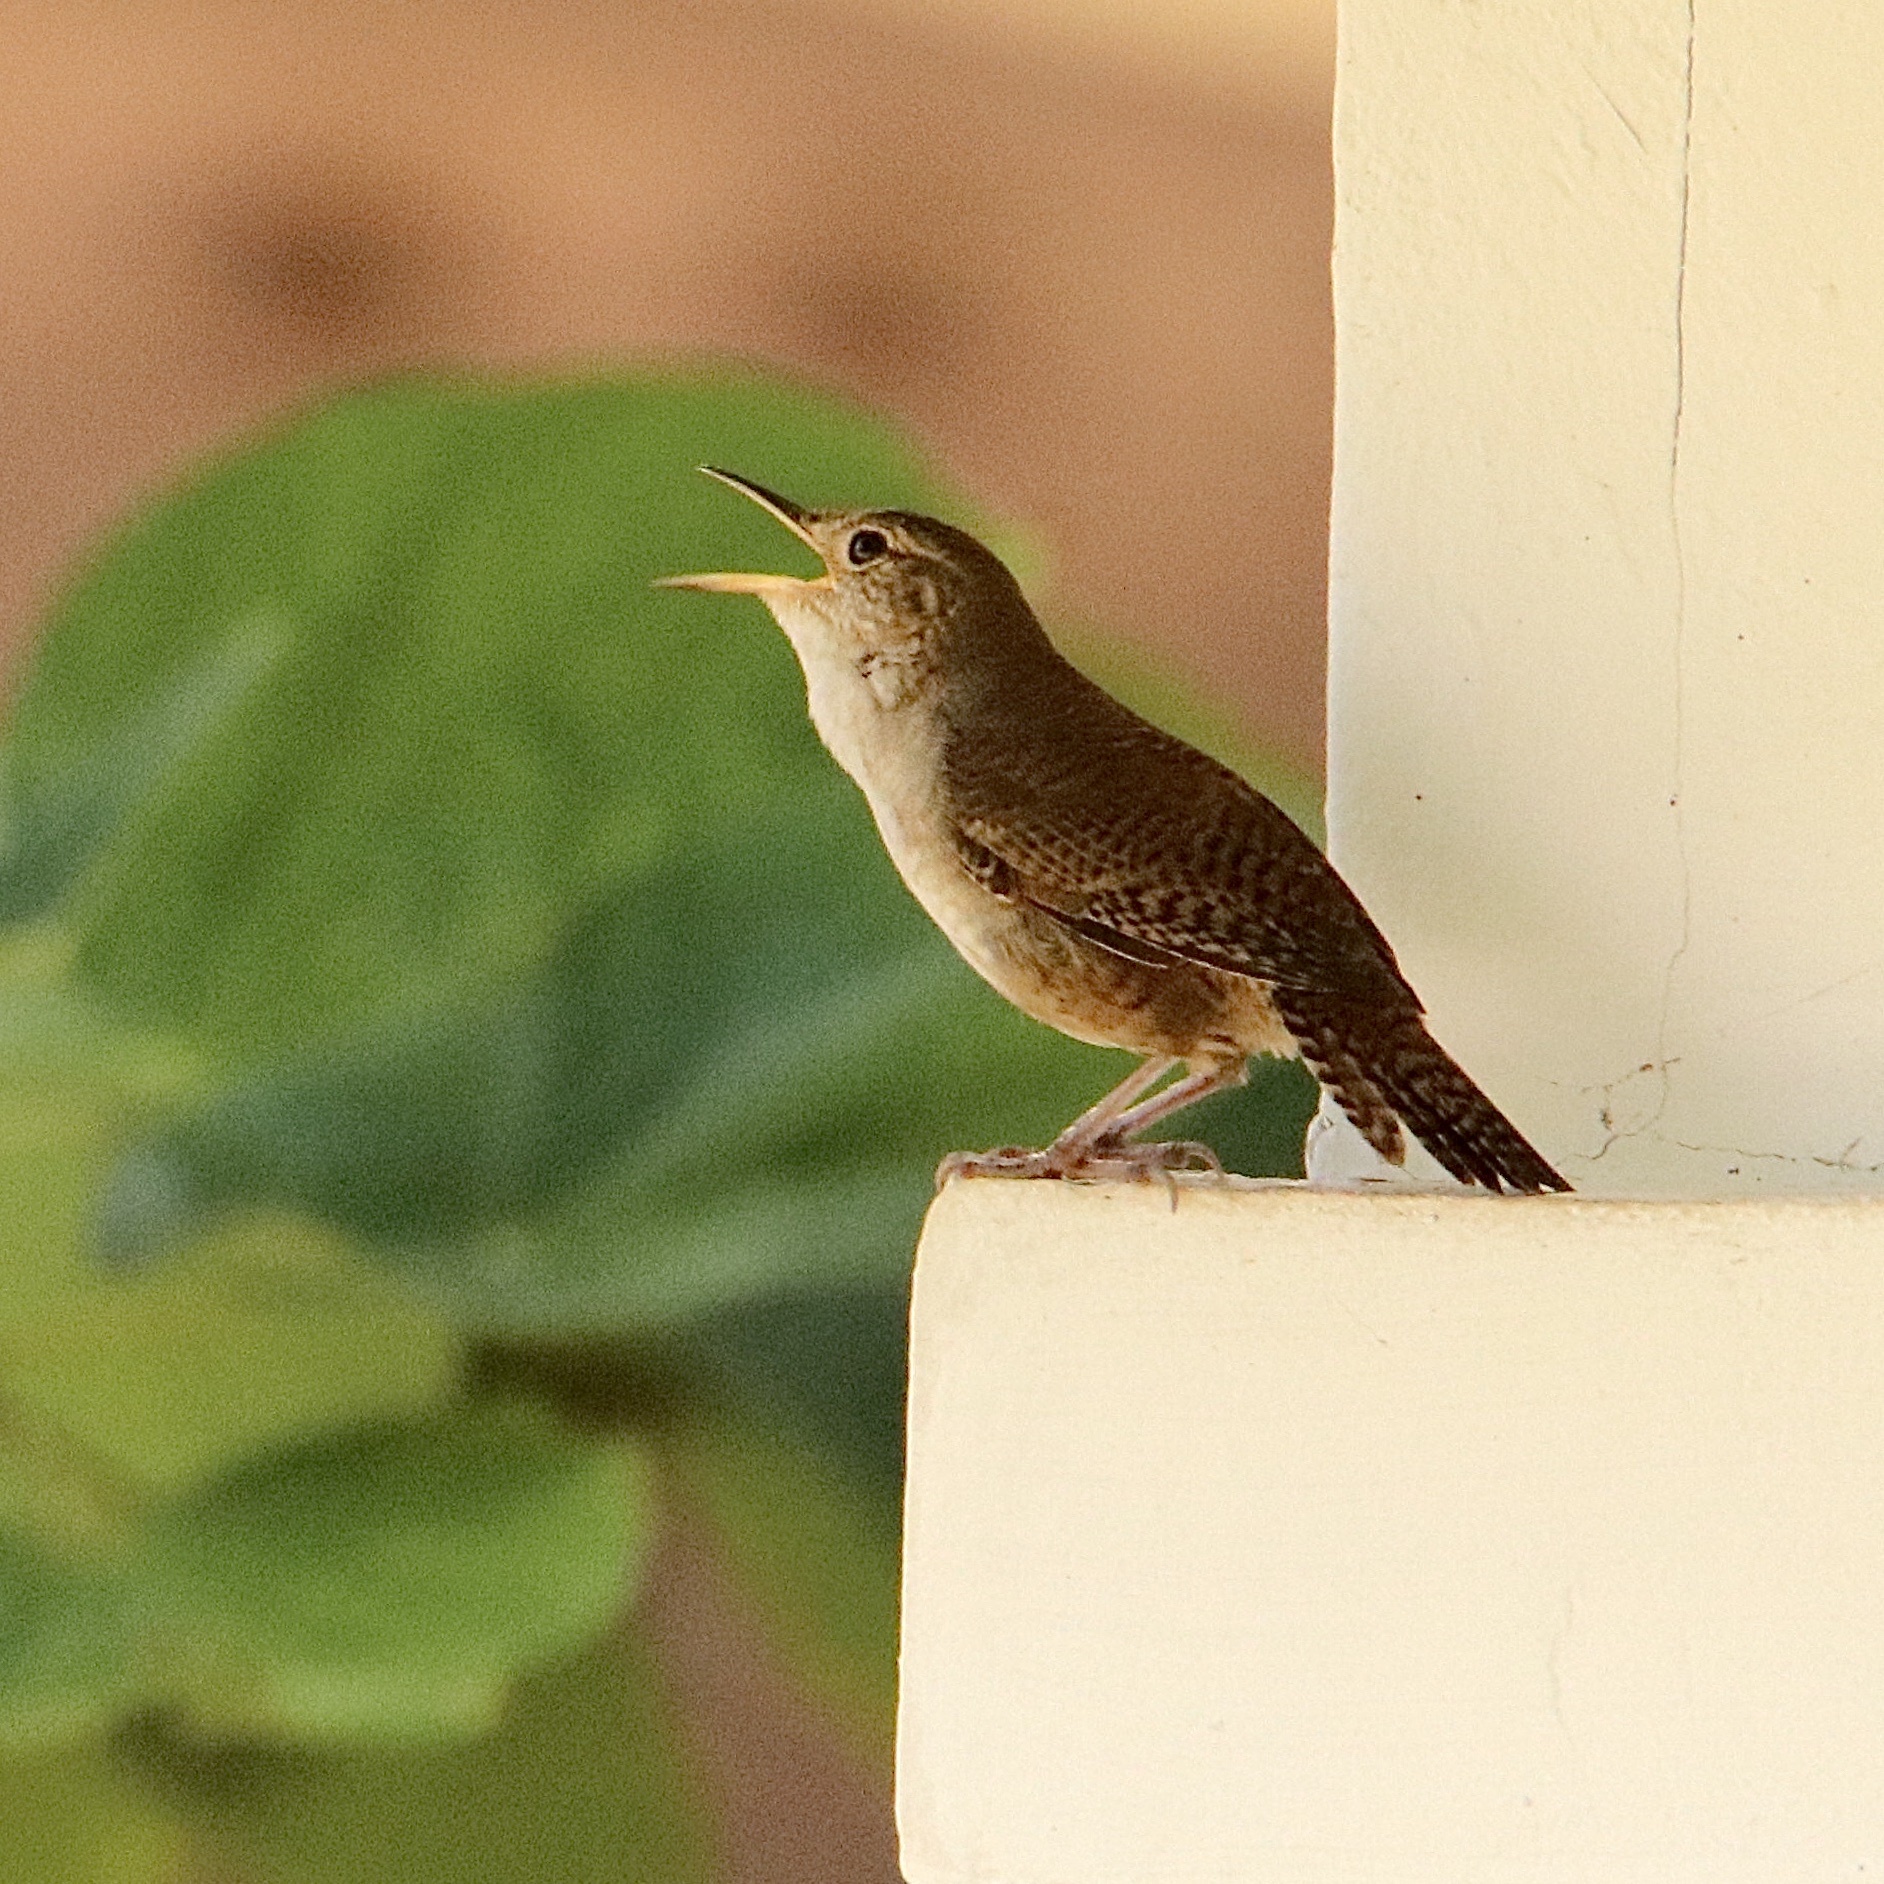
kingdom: Animalia
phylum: Chordata
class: Aves
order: Passeriformes
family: Troglodytidae
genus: Troglodytes
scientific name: Troglodytes aedon
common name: House wren
